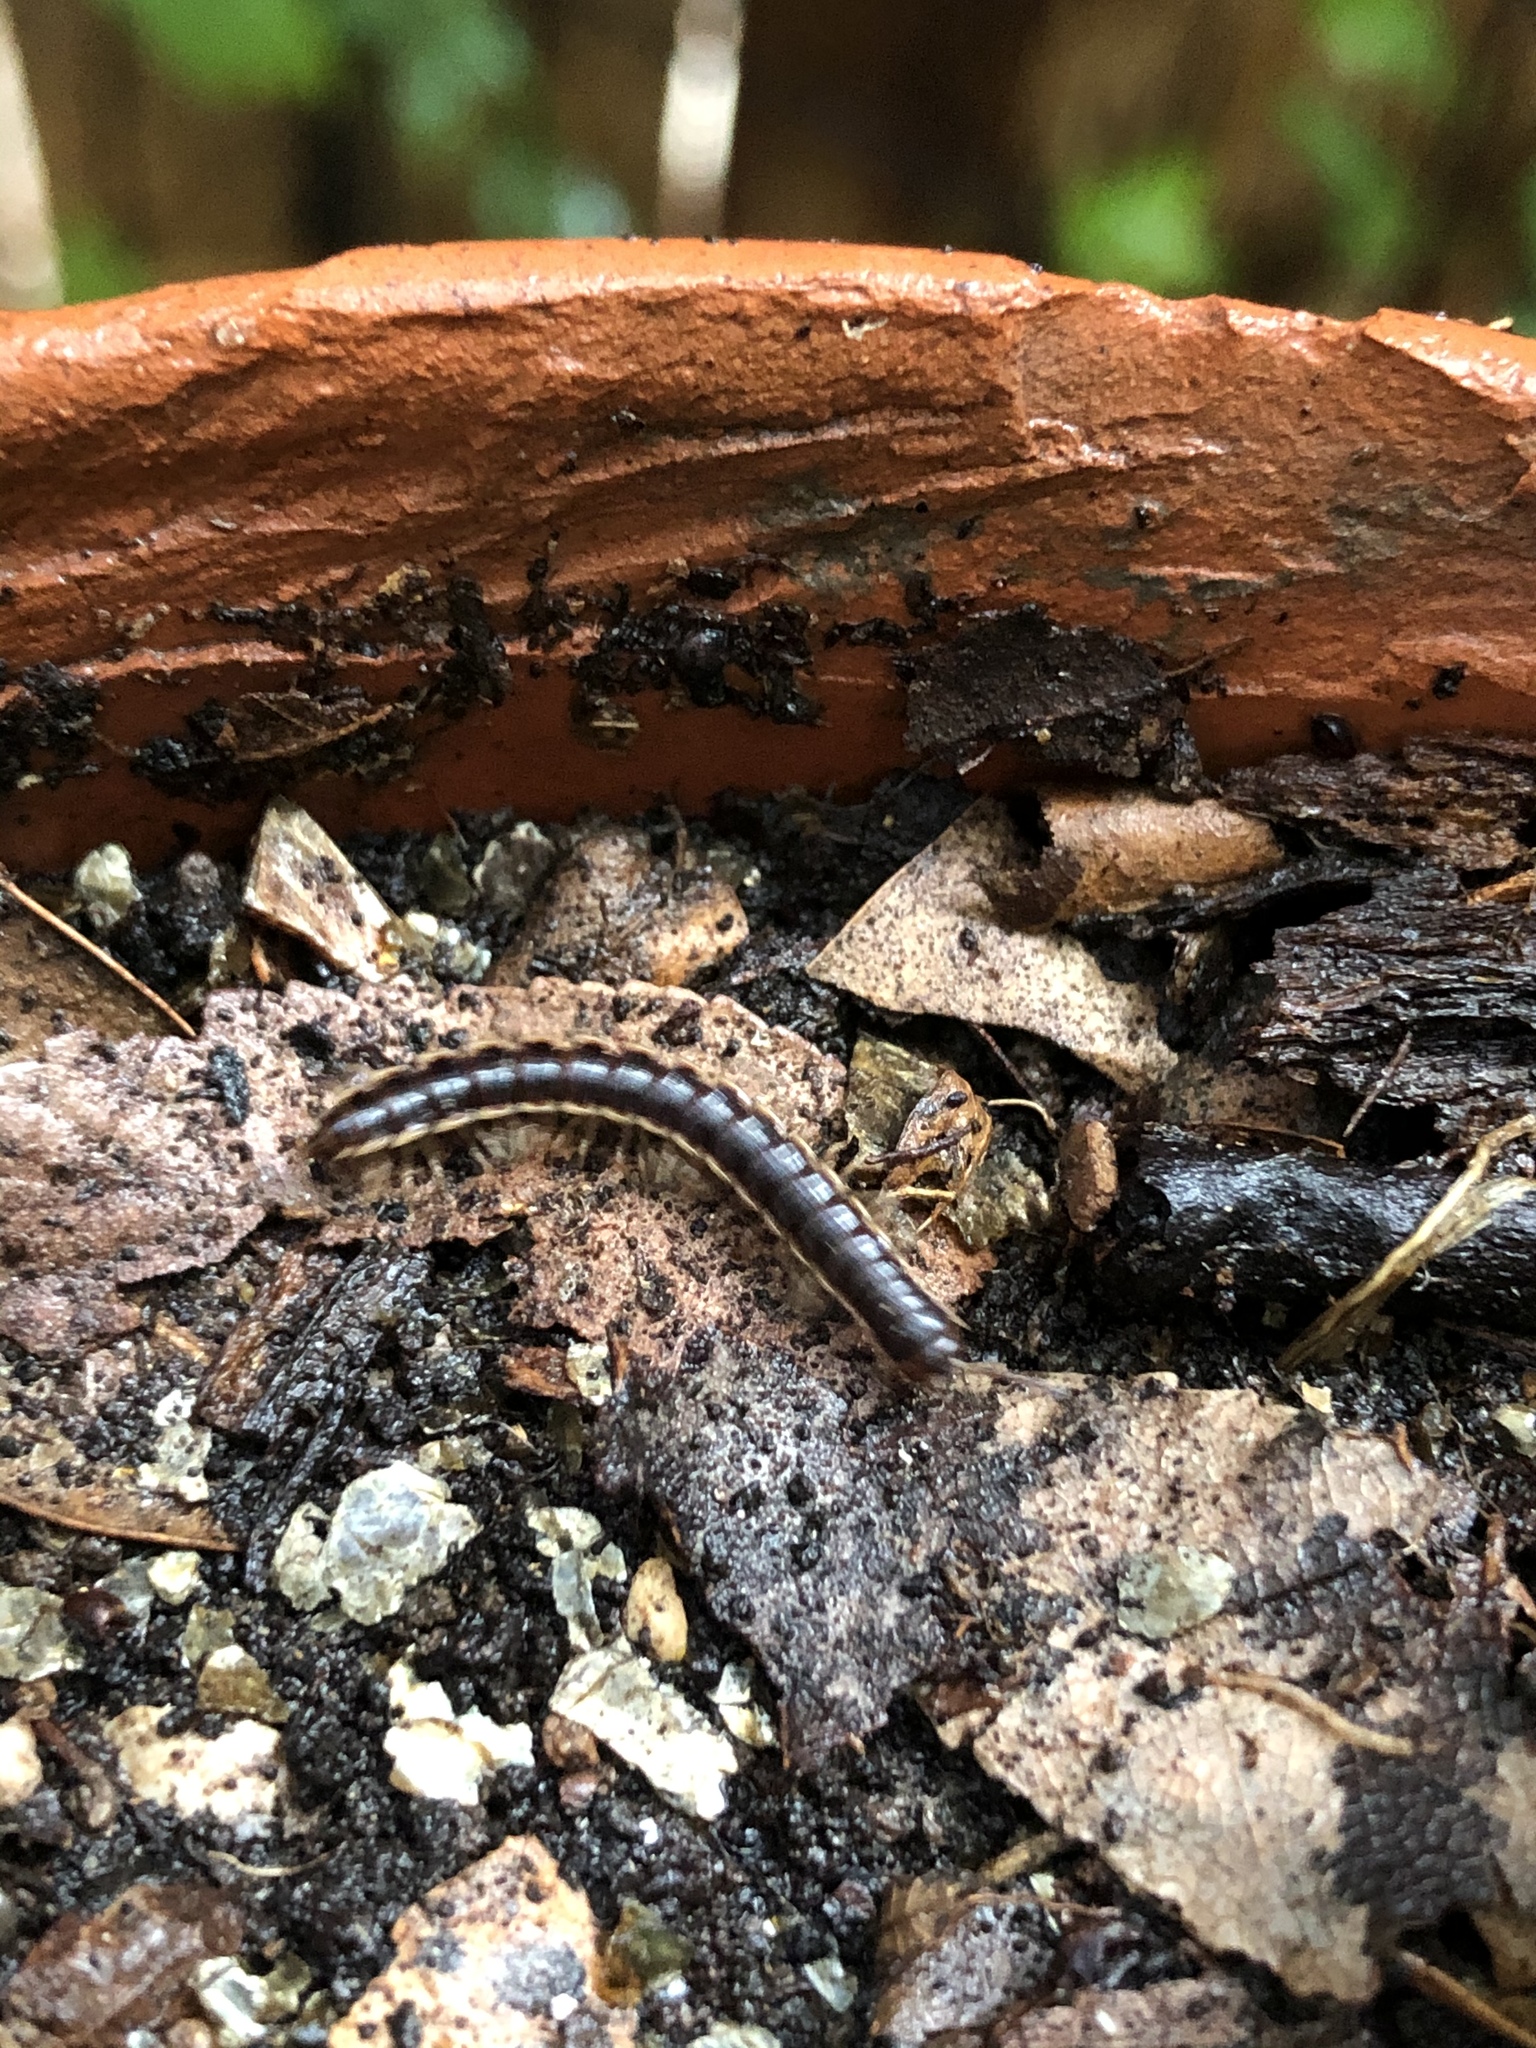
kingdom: Animalia
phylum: Arthropoda
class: Diplopoda
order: Polydesmida
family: Paradoxosomatidae
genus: Oxidus
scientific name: Oxidus gracilis
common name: Greenhouse millipede
